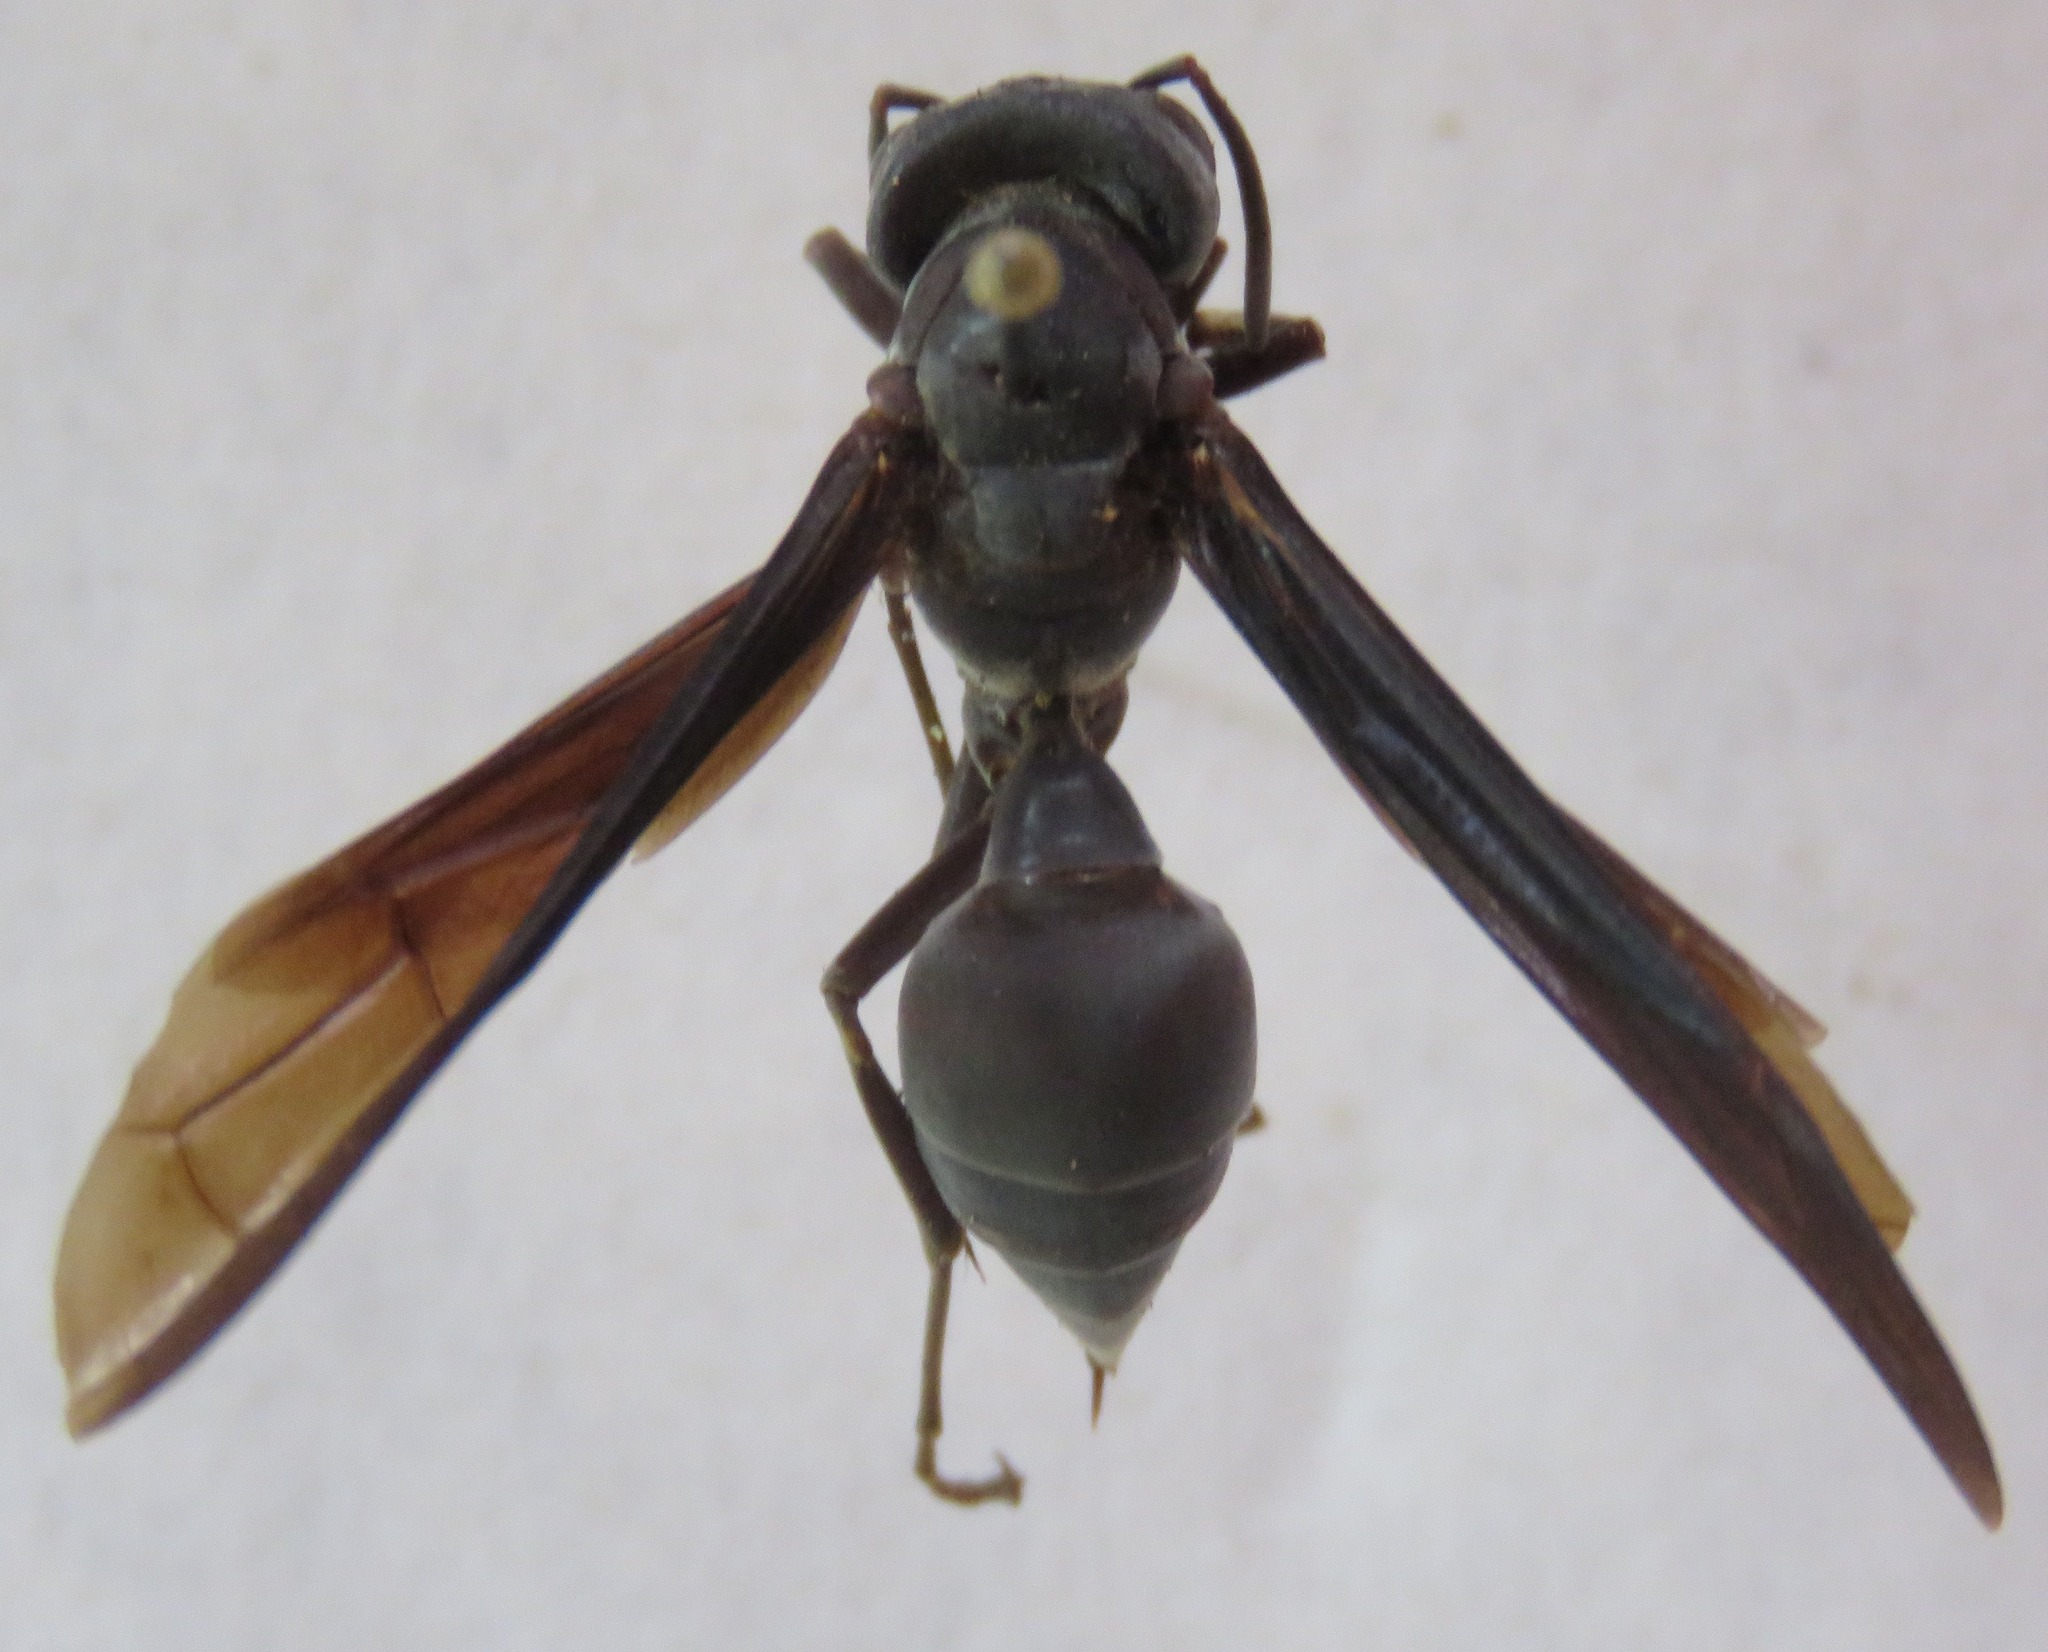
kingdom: Animalia
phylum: Arthropoda
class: Insecta
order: Hymenoptera
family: Vespidae
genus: Synoeca
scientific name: Synoeca septentrionalis
